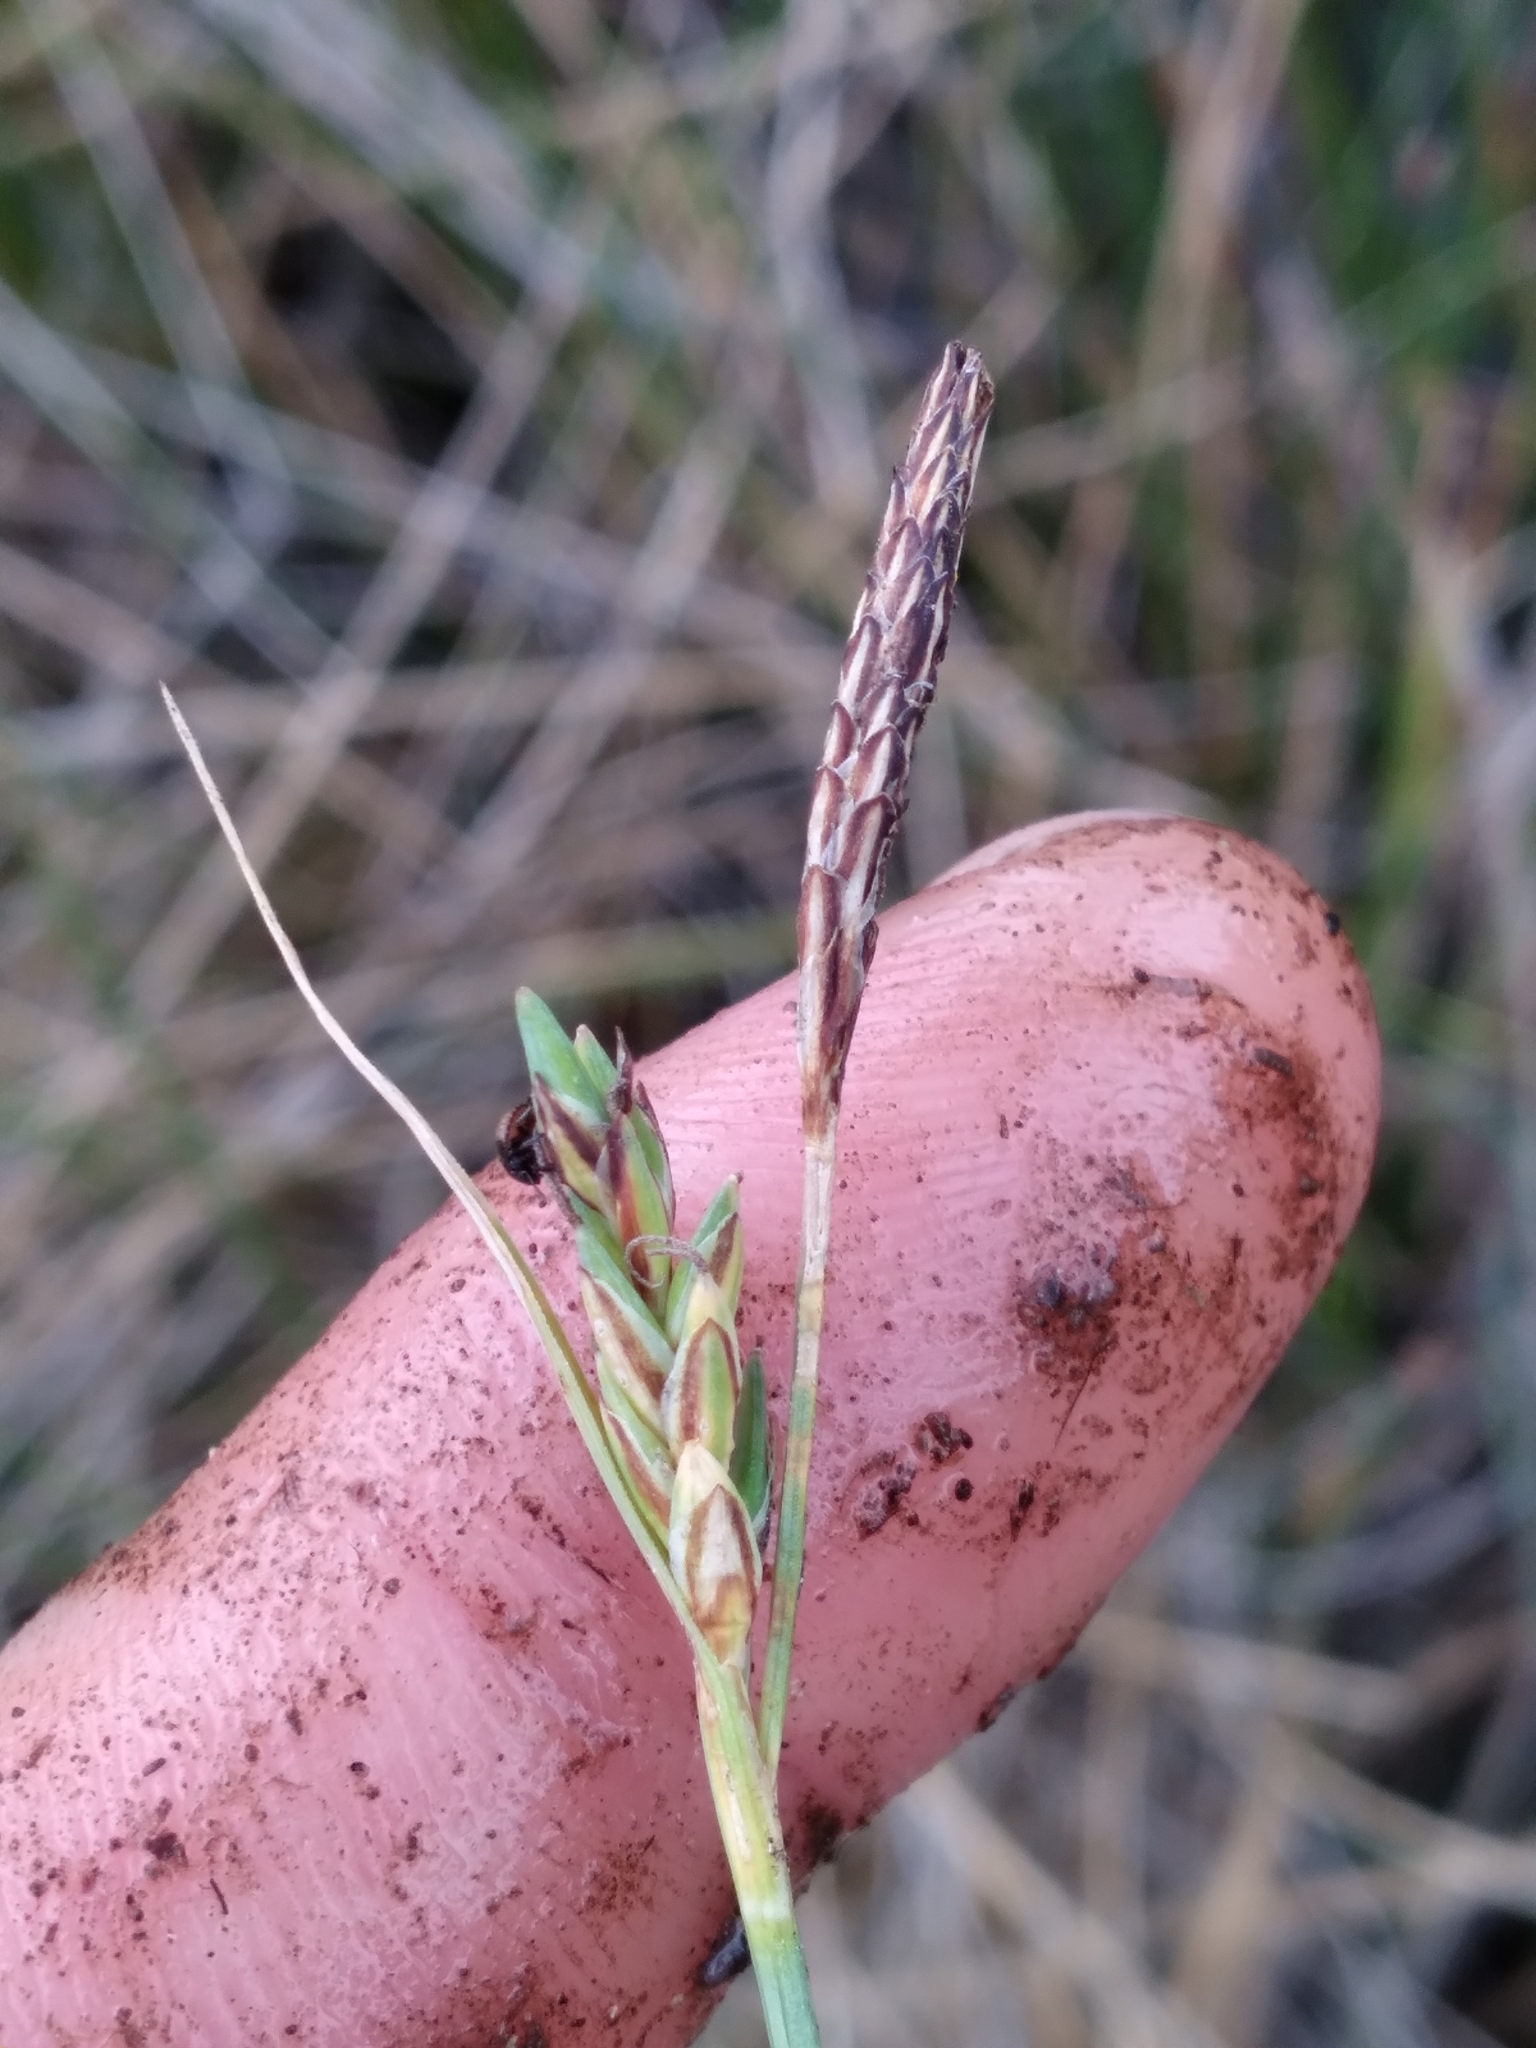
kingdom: Plantae
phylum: Tracheophyta
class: Liliopsida
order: Poales
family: Cyperaceae
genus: Carex
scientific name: Carex livida
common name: Livid sedge
